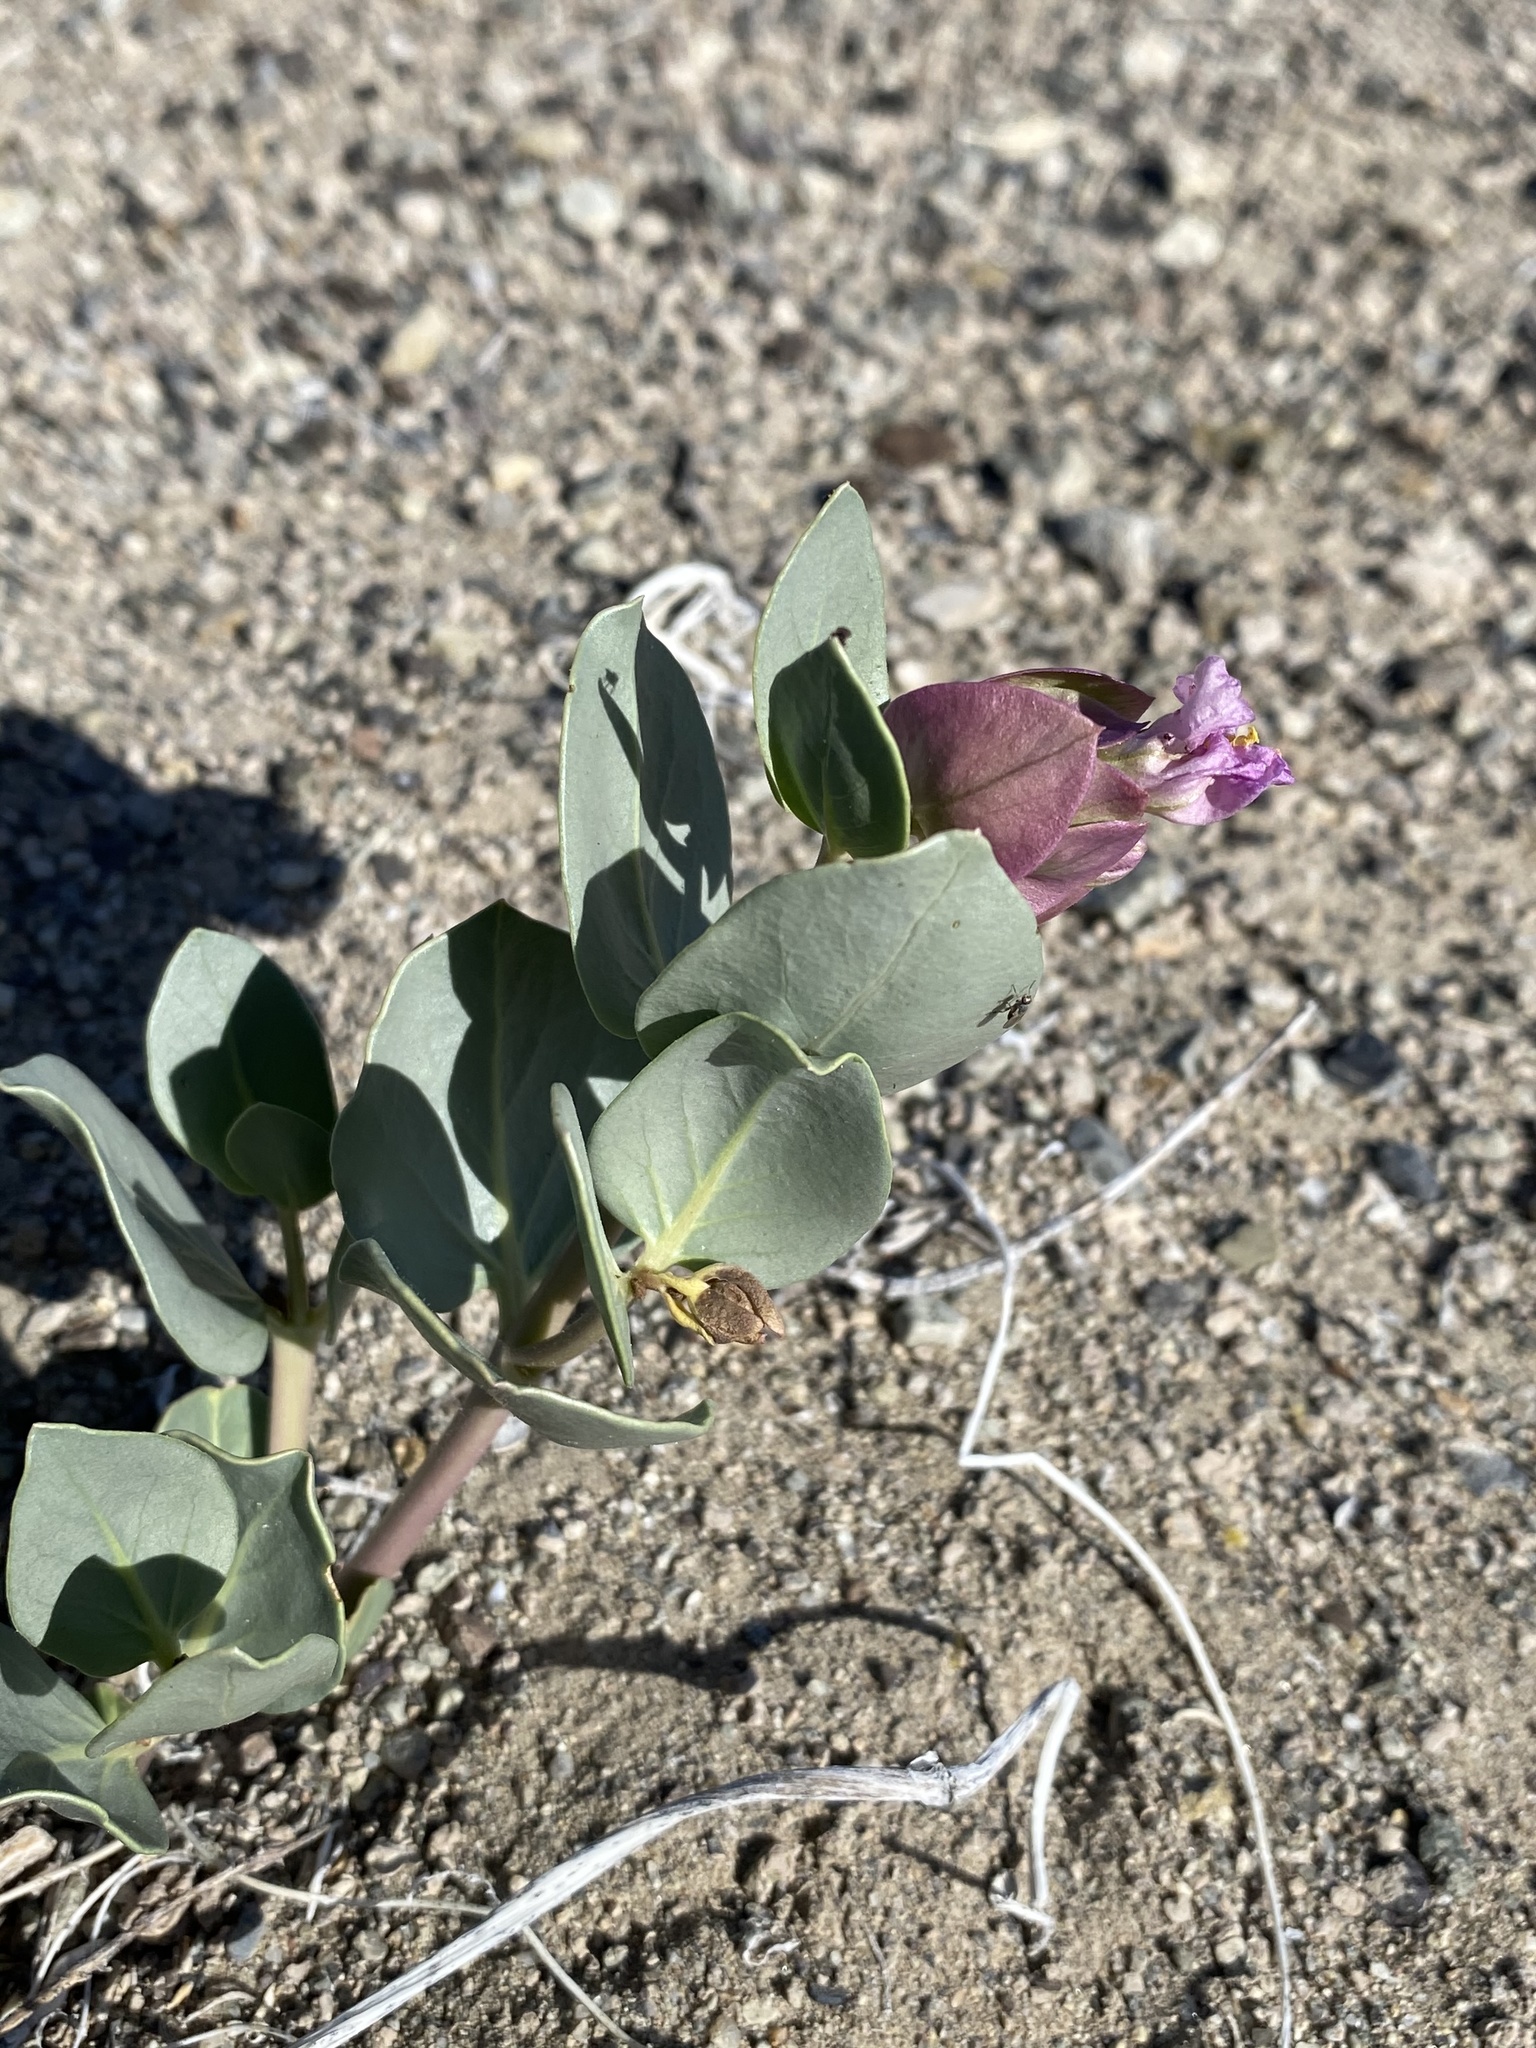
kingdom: Plantae
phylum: Tracheophyta
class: Magnoliopsida
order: Caryophyllales
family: Nyctaginaceae
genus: Mirabilis
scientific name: Mirabilis alipes
